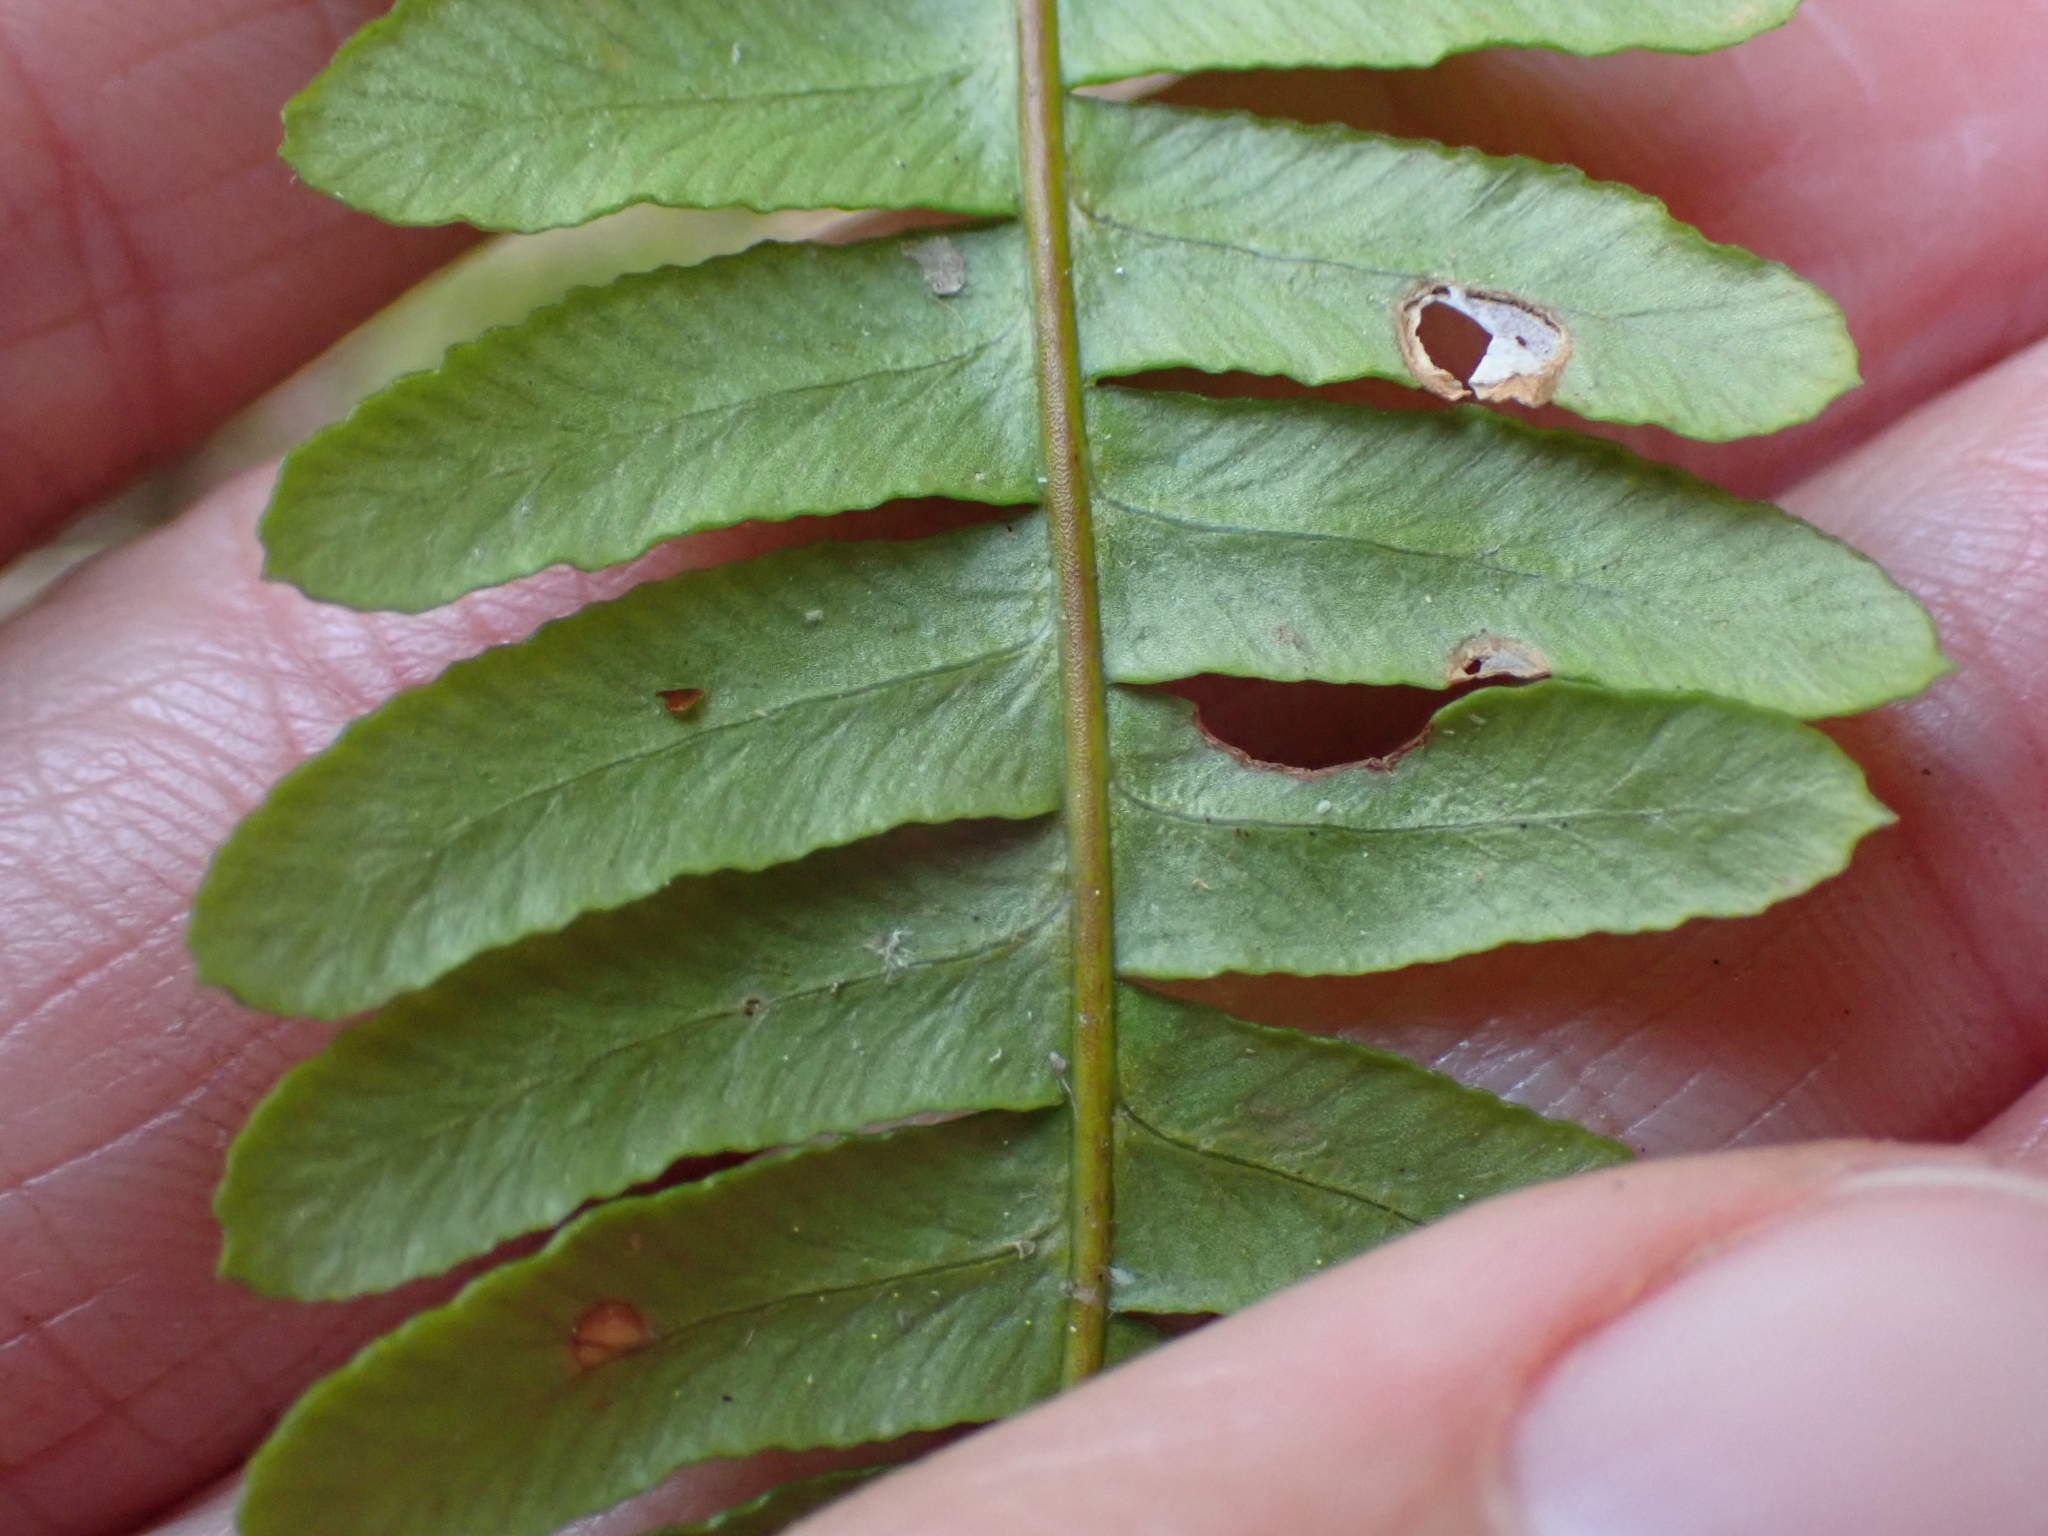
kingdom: Plantae
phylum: Tracheophyta
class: Polypodiopsida
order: Polypodiales
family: Blechnaceae
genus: Struthiopteris
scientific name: Struthiopteris spicant
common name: Deer fern
